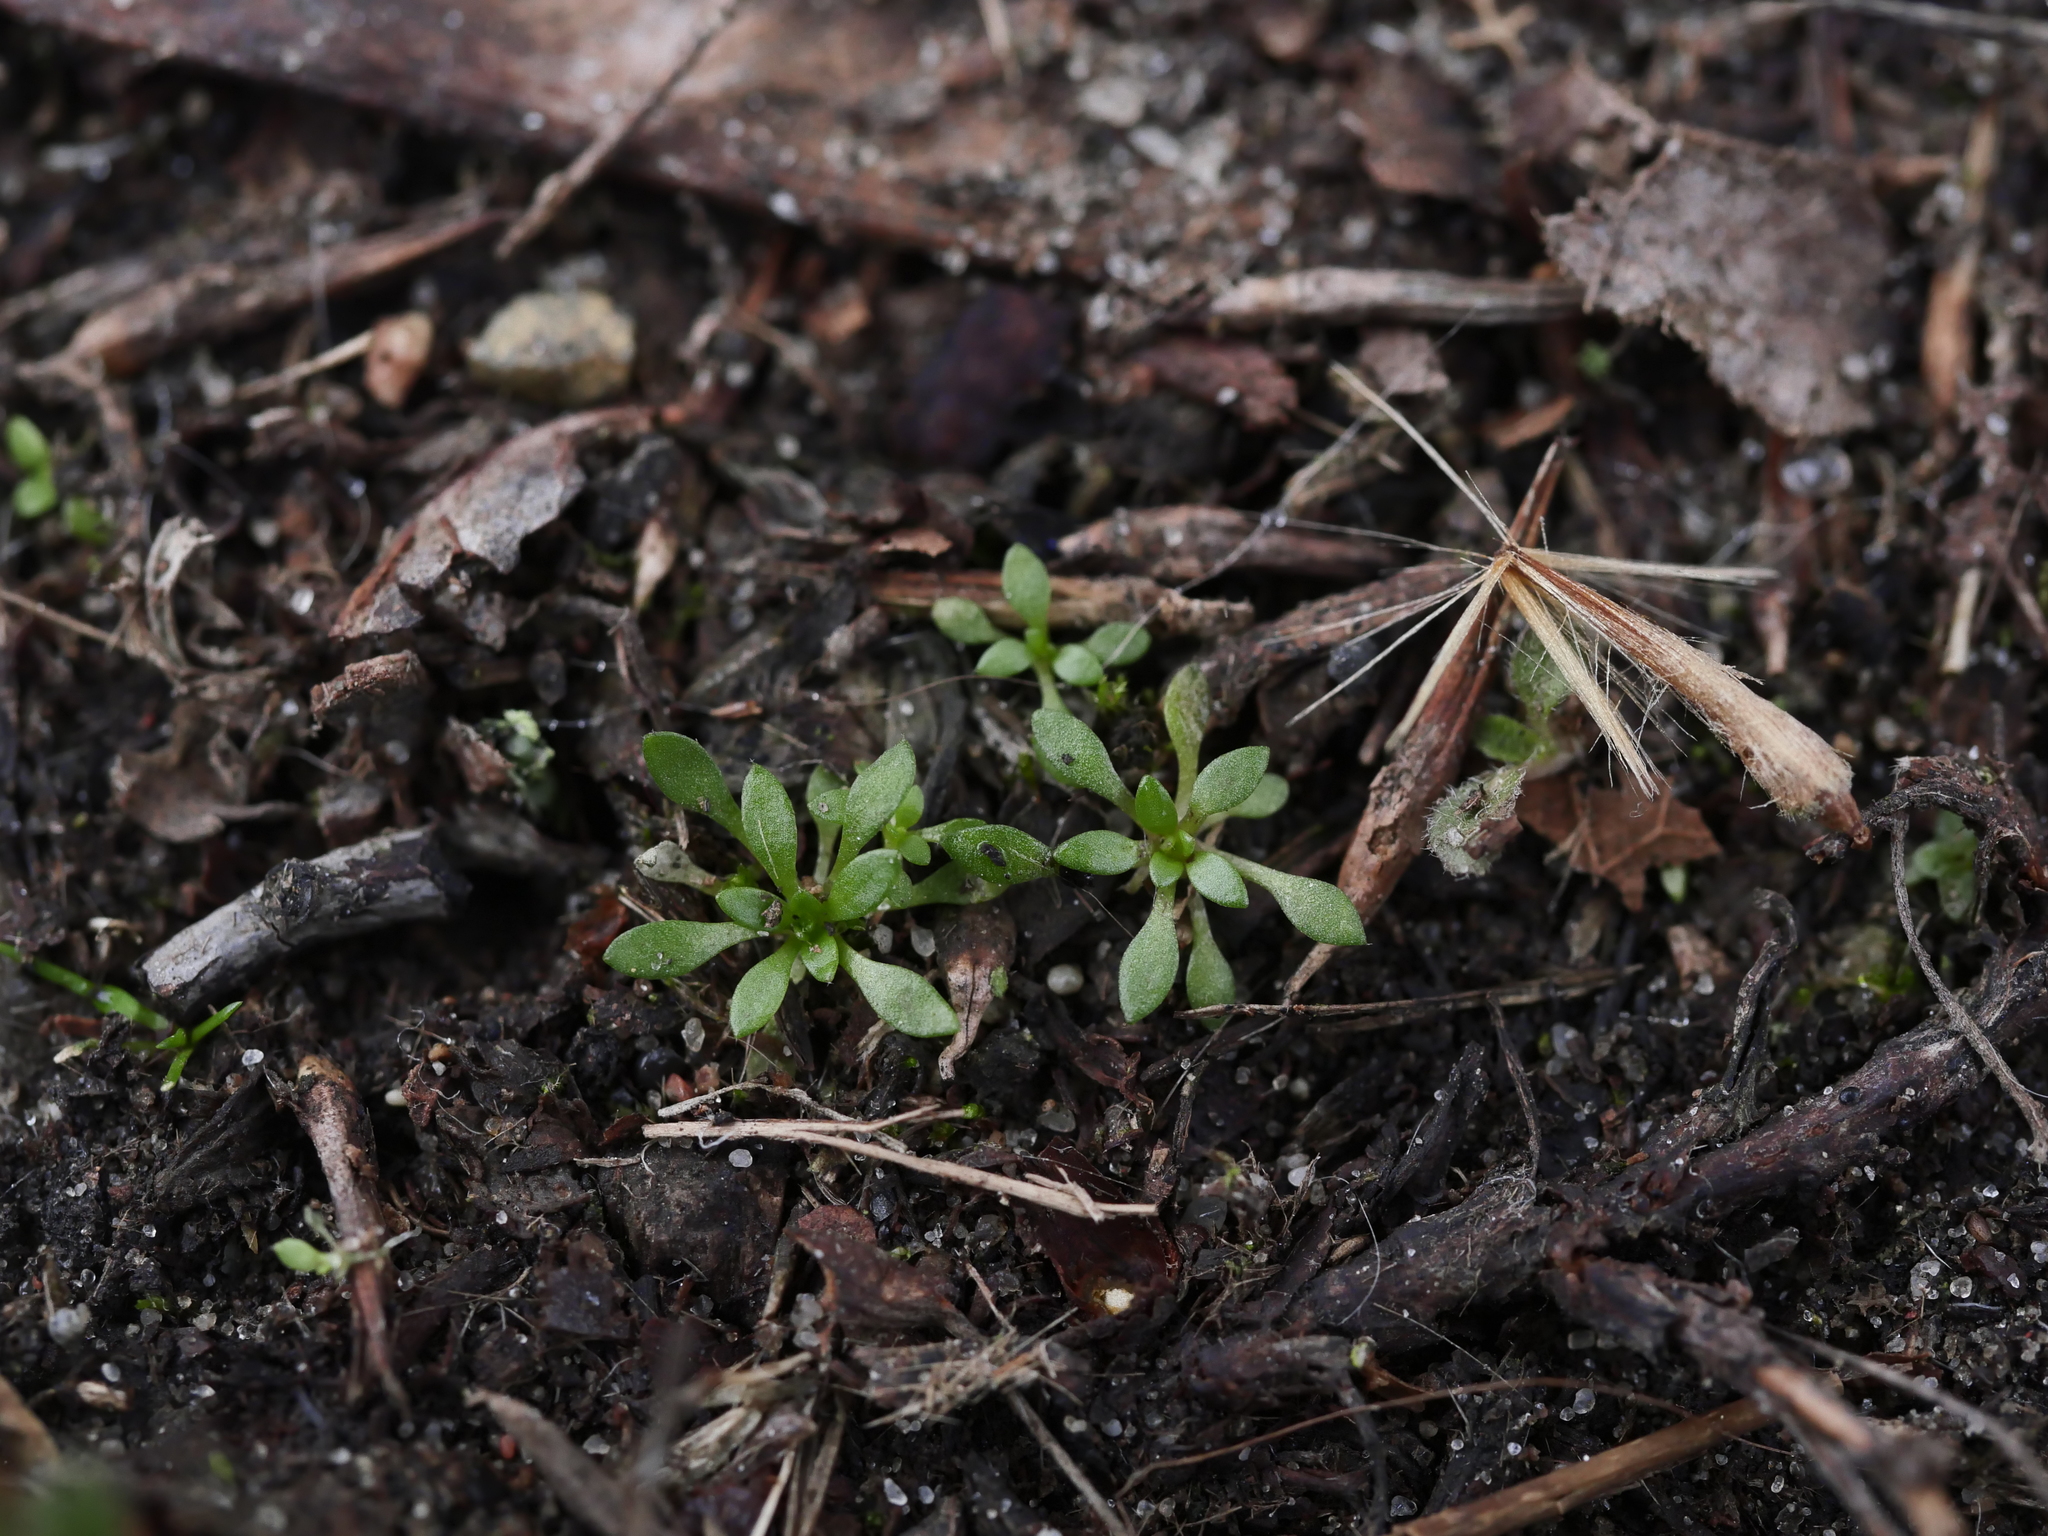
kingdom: Plantae
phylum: Tracheophyta
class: Magnoliopsida
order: Brassicales
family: Brassicaceae
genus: Draba
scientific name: Draba verna
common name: Spring draba
